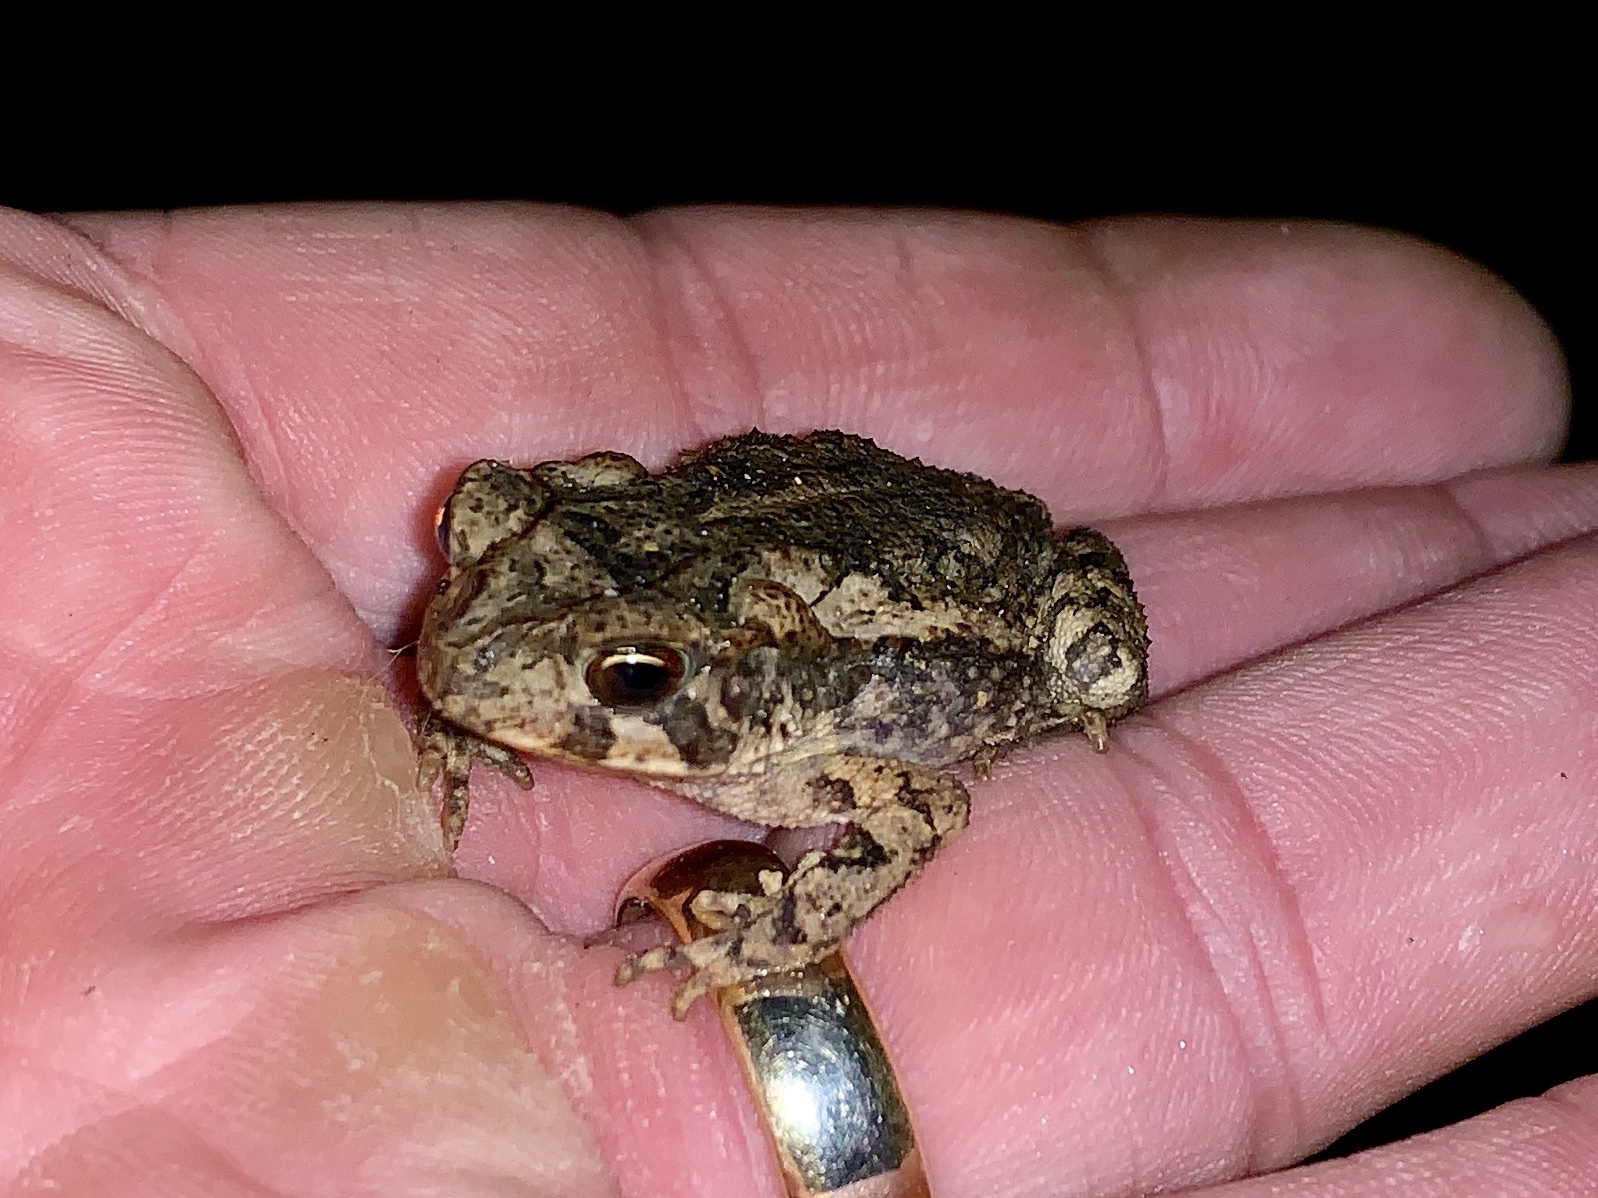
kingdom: Animalia
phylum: Chordata
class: Amphibia
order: Anura
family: Bufonidae
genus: Incilius
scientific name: Incilius nebulifer
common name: Gulf coast toad
